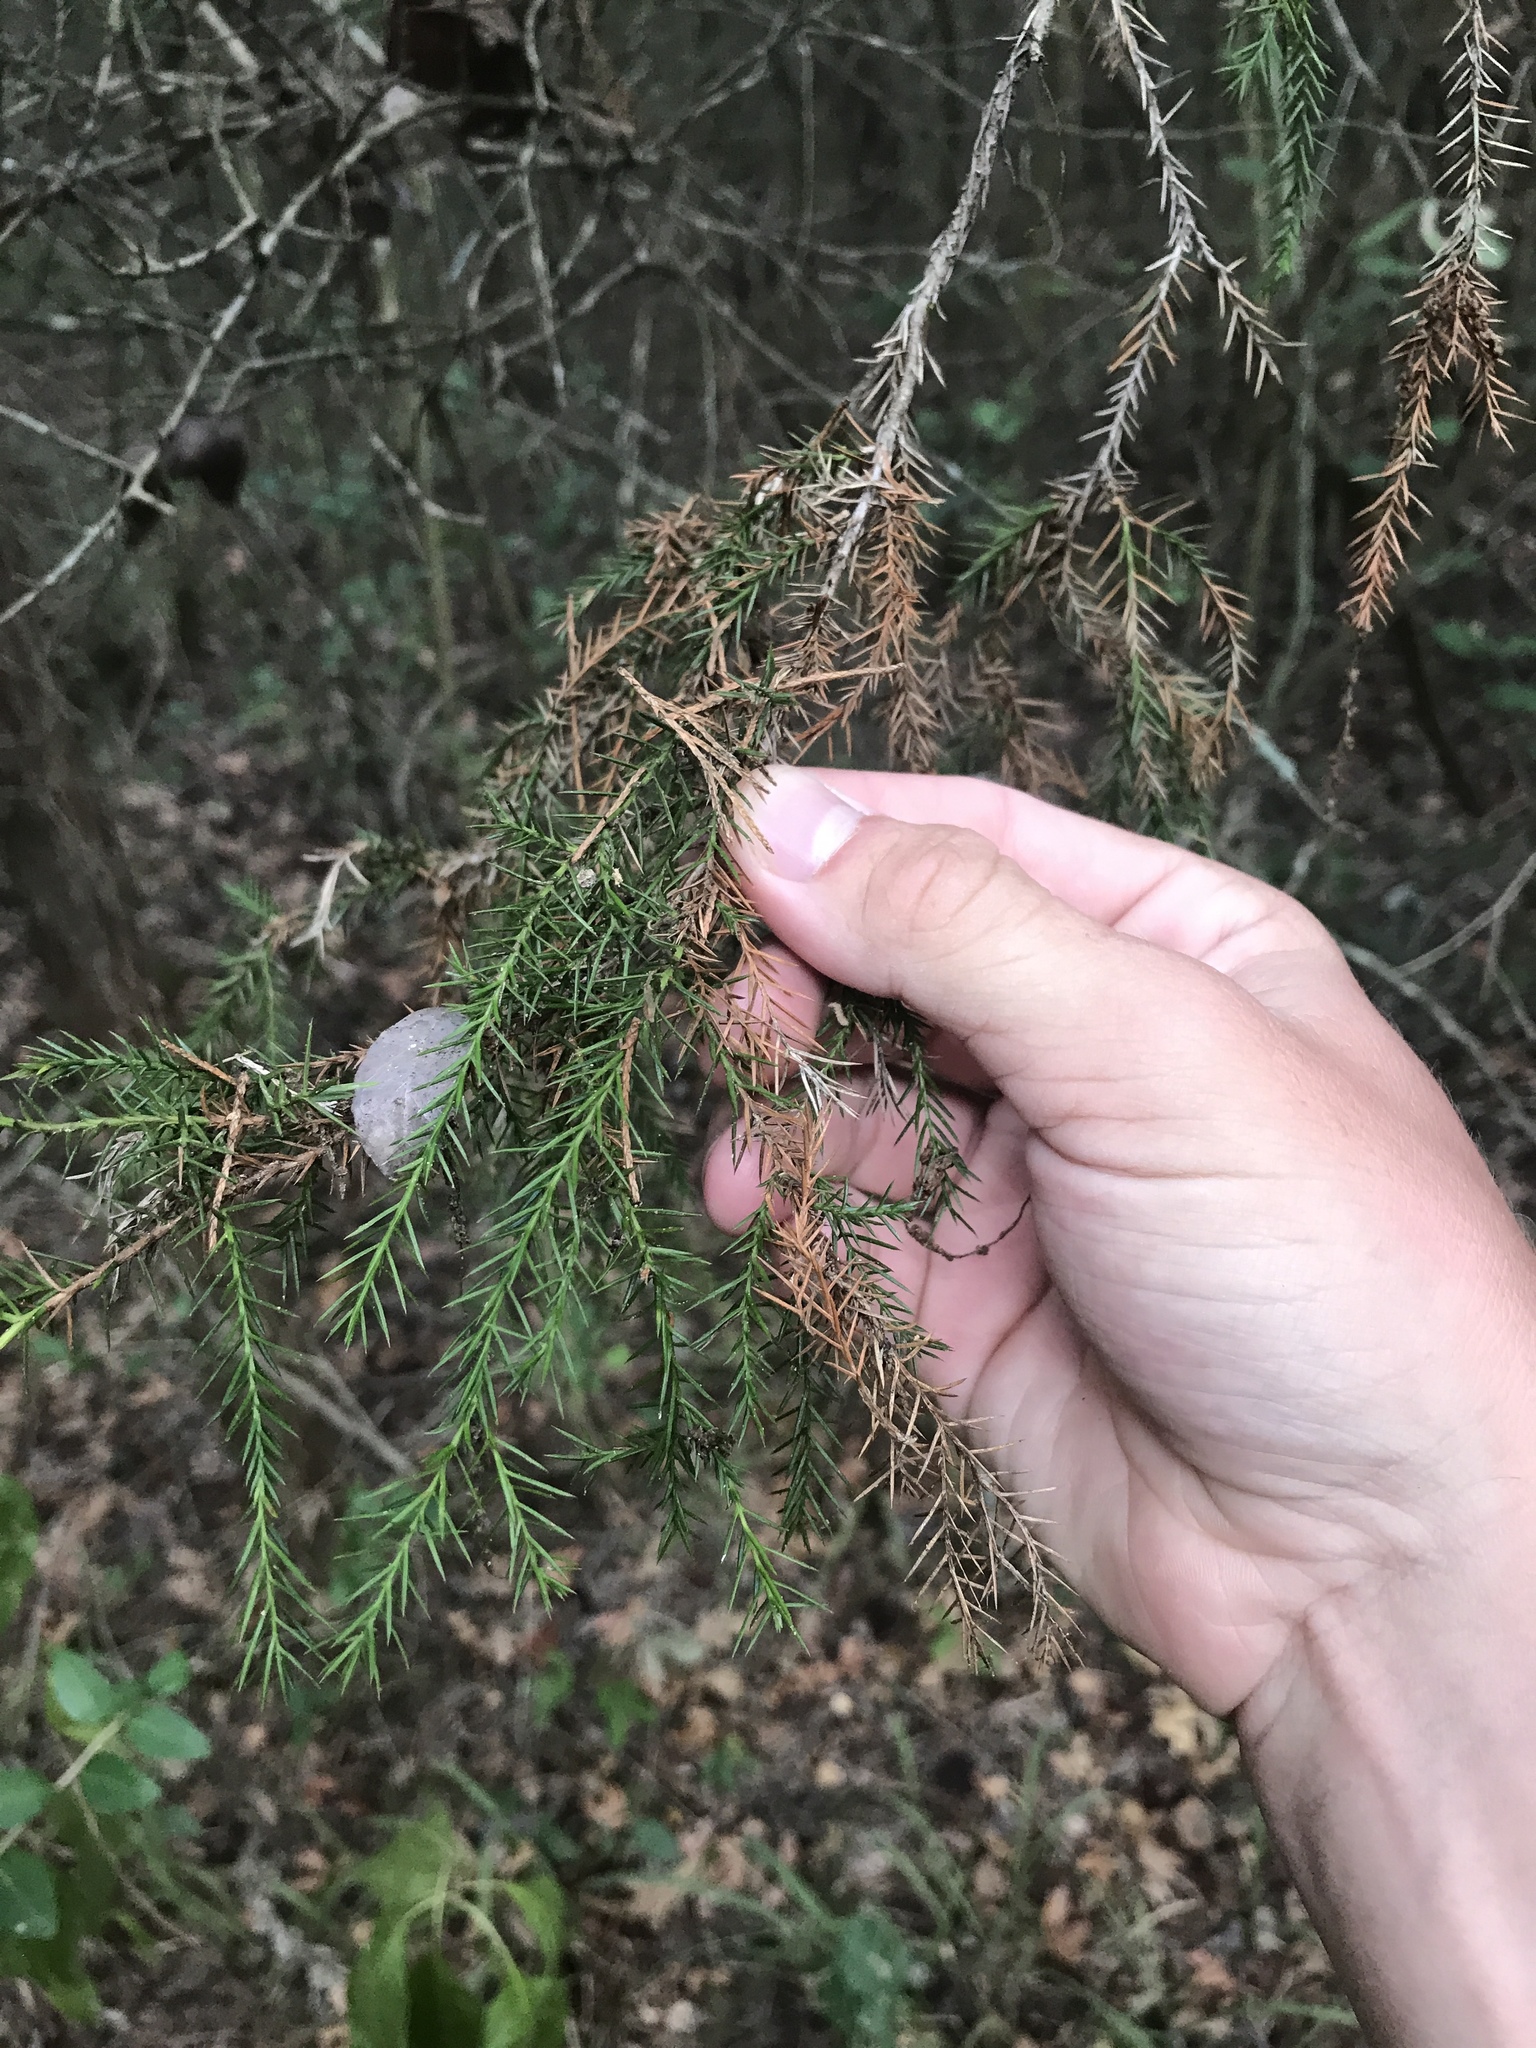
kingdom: Plantae
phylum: Tracheophyta
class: Pinopsida
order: Pinales
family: Cupressaceae
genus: Juniperus
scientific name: Juniperus virginiana
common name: Red juniper
